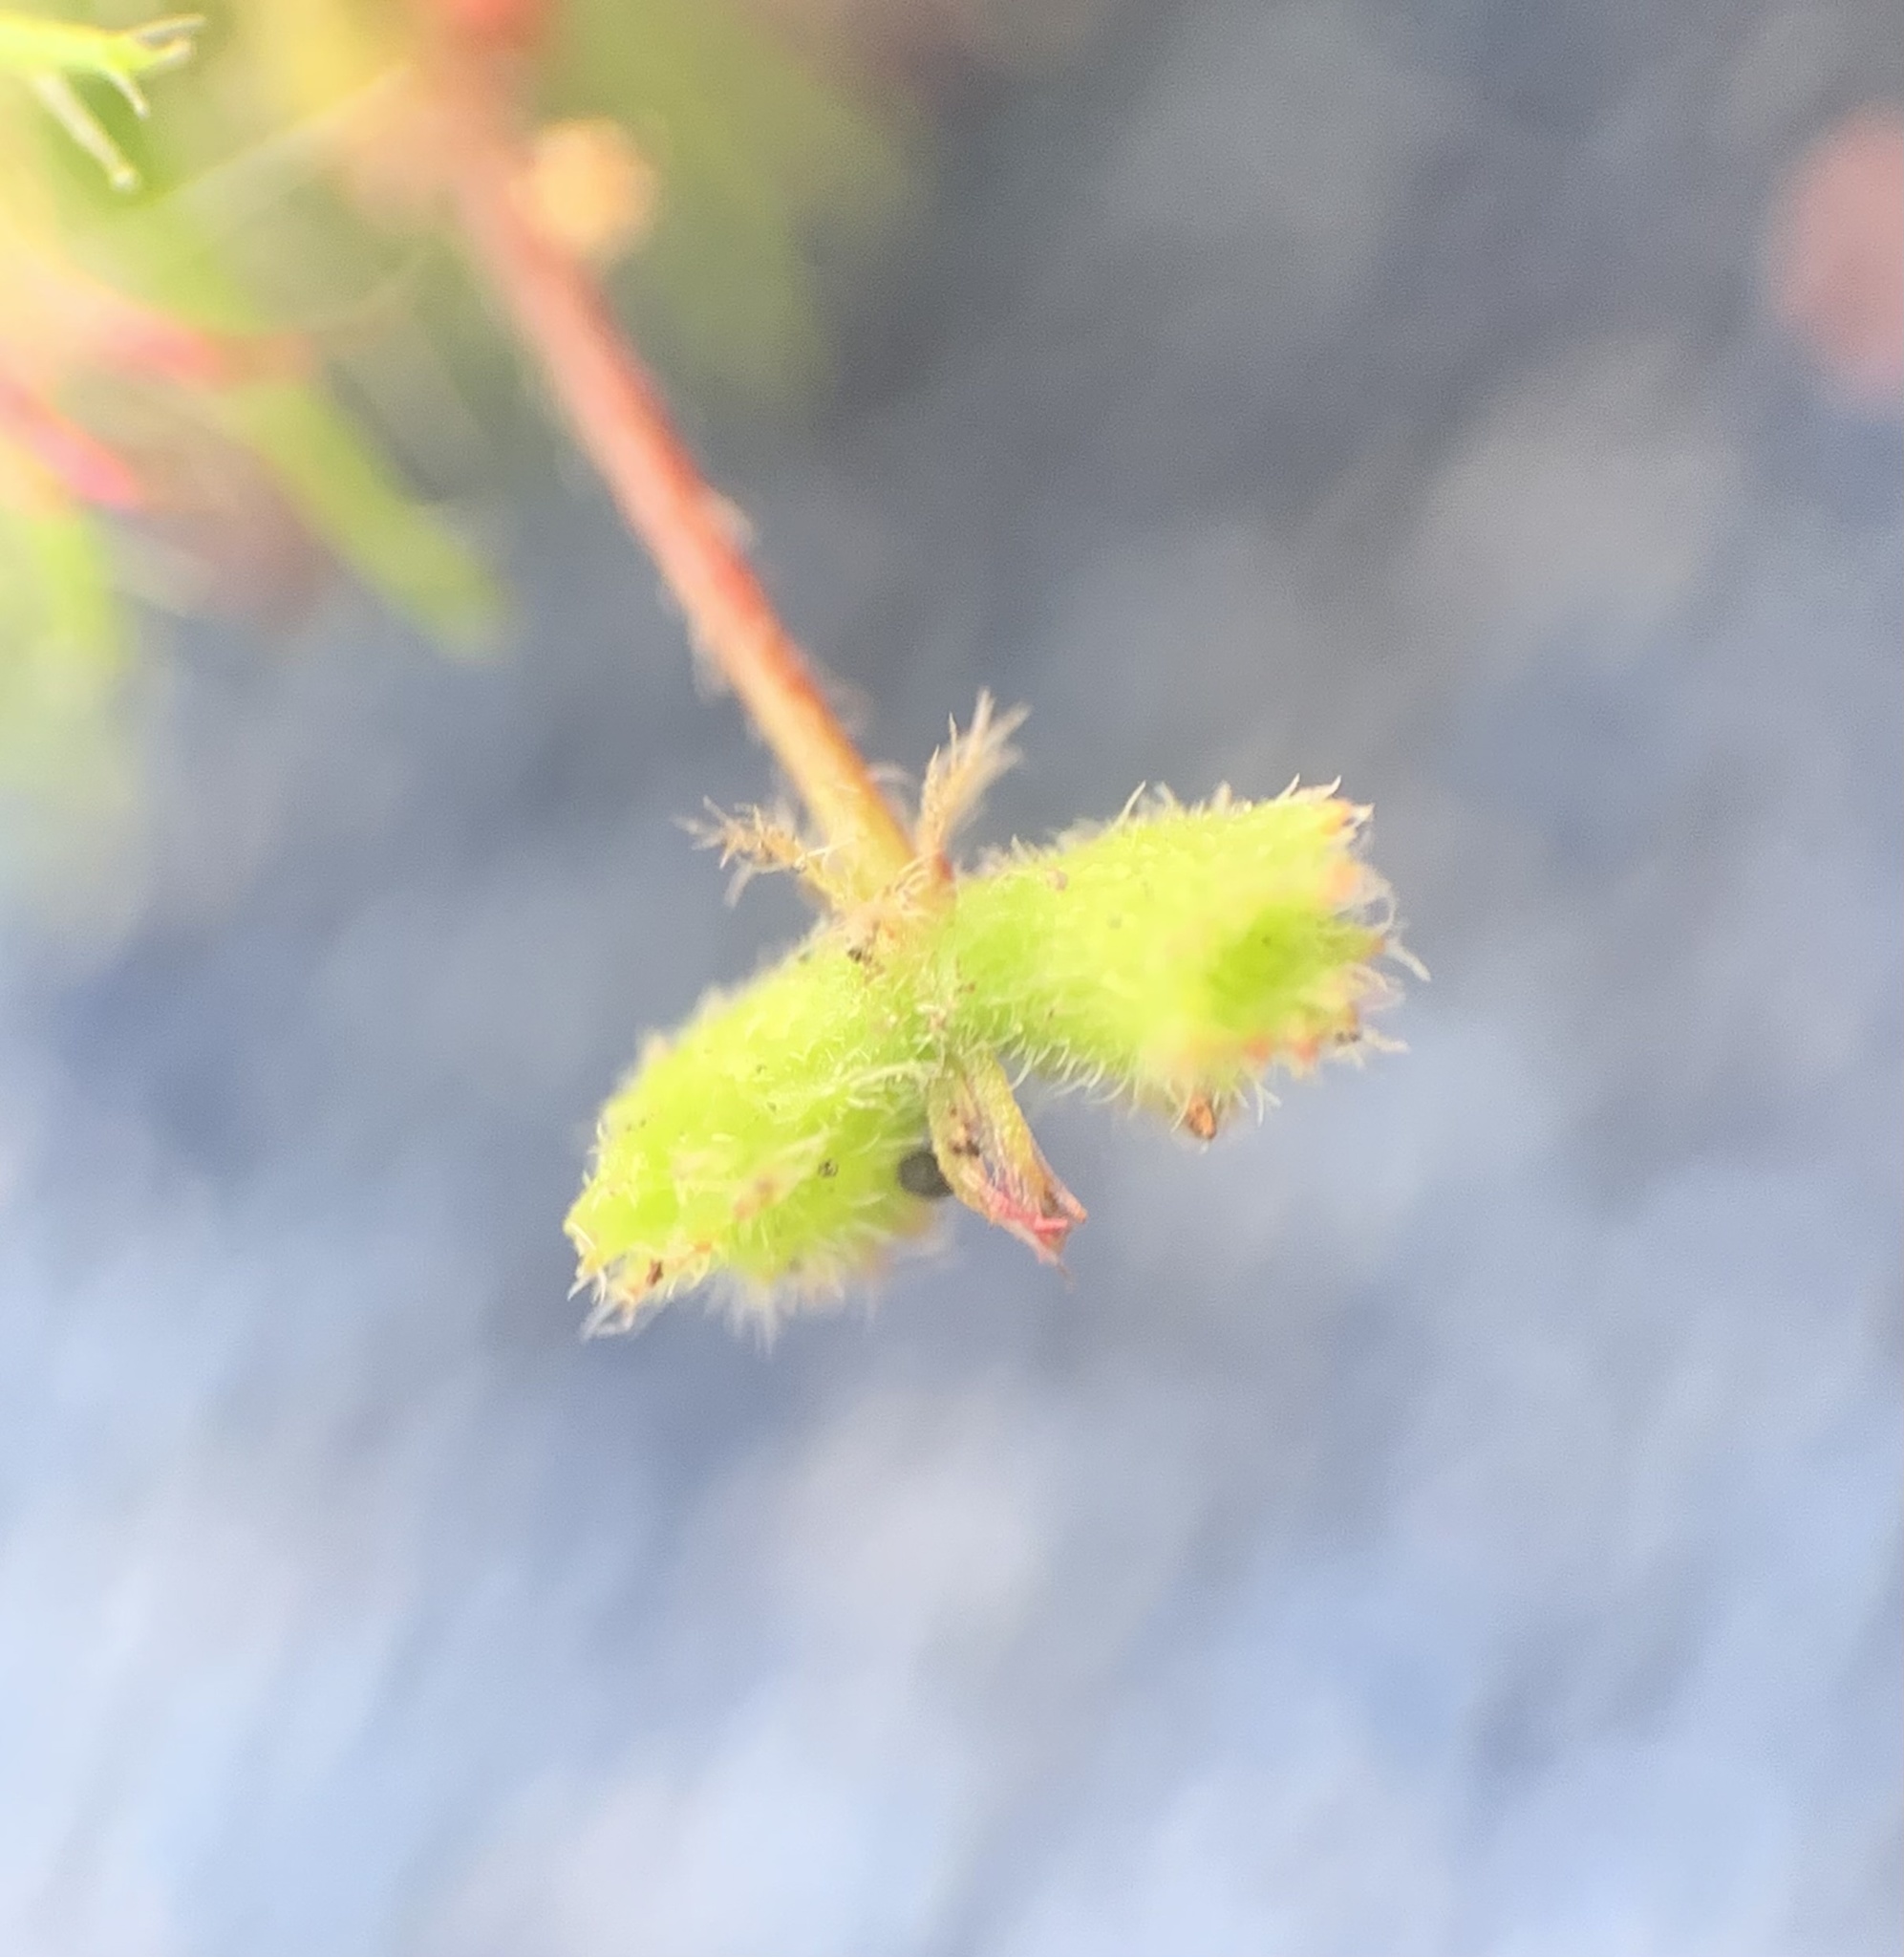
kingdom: Plantae
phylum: Tracheophyta
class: Magnoliopsida
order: Malpighiales
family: Euphorbiaceae
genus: Acalypha
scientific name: Acalypha arvensis
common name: Field copperleaf
